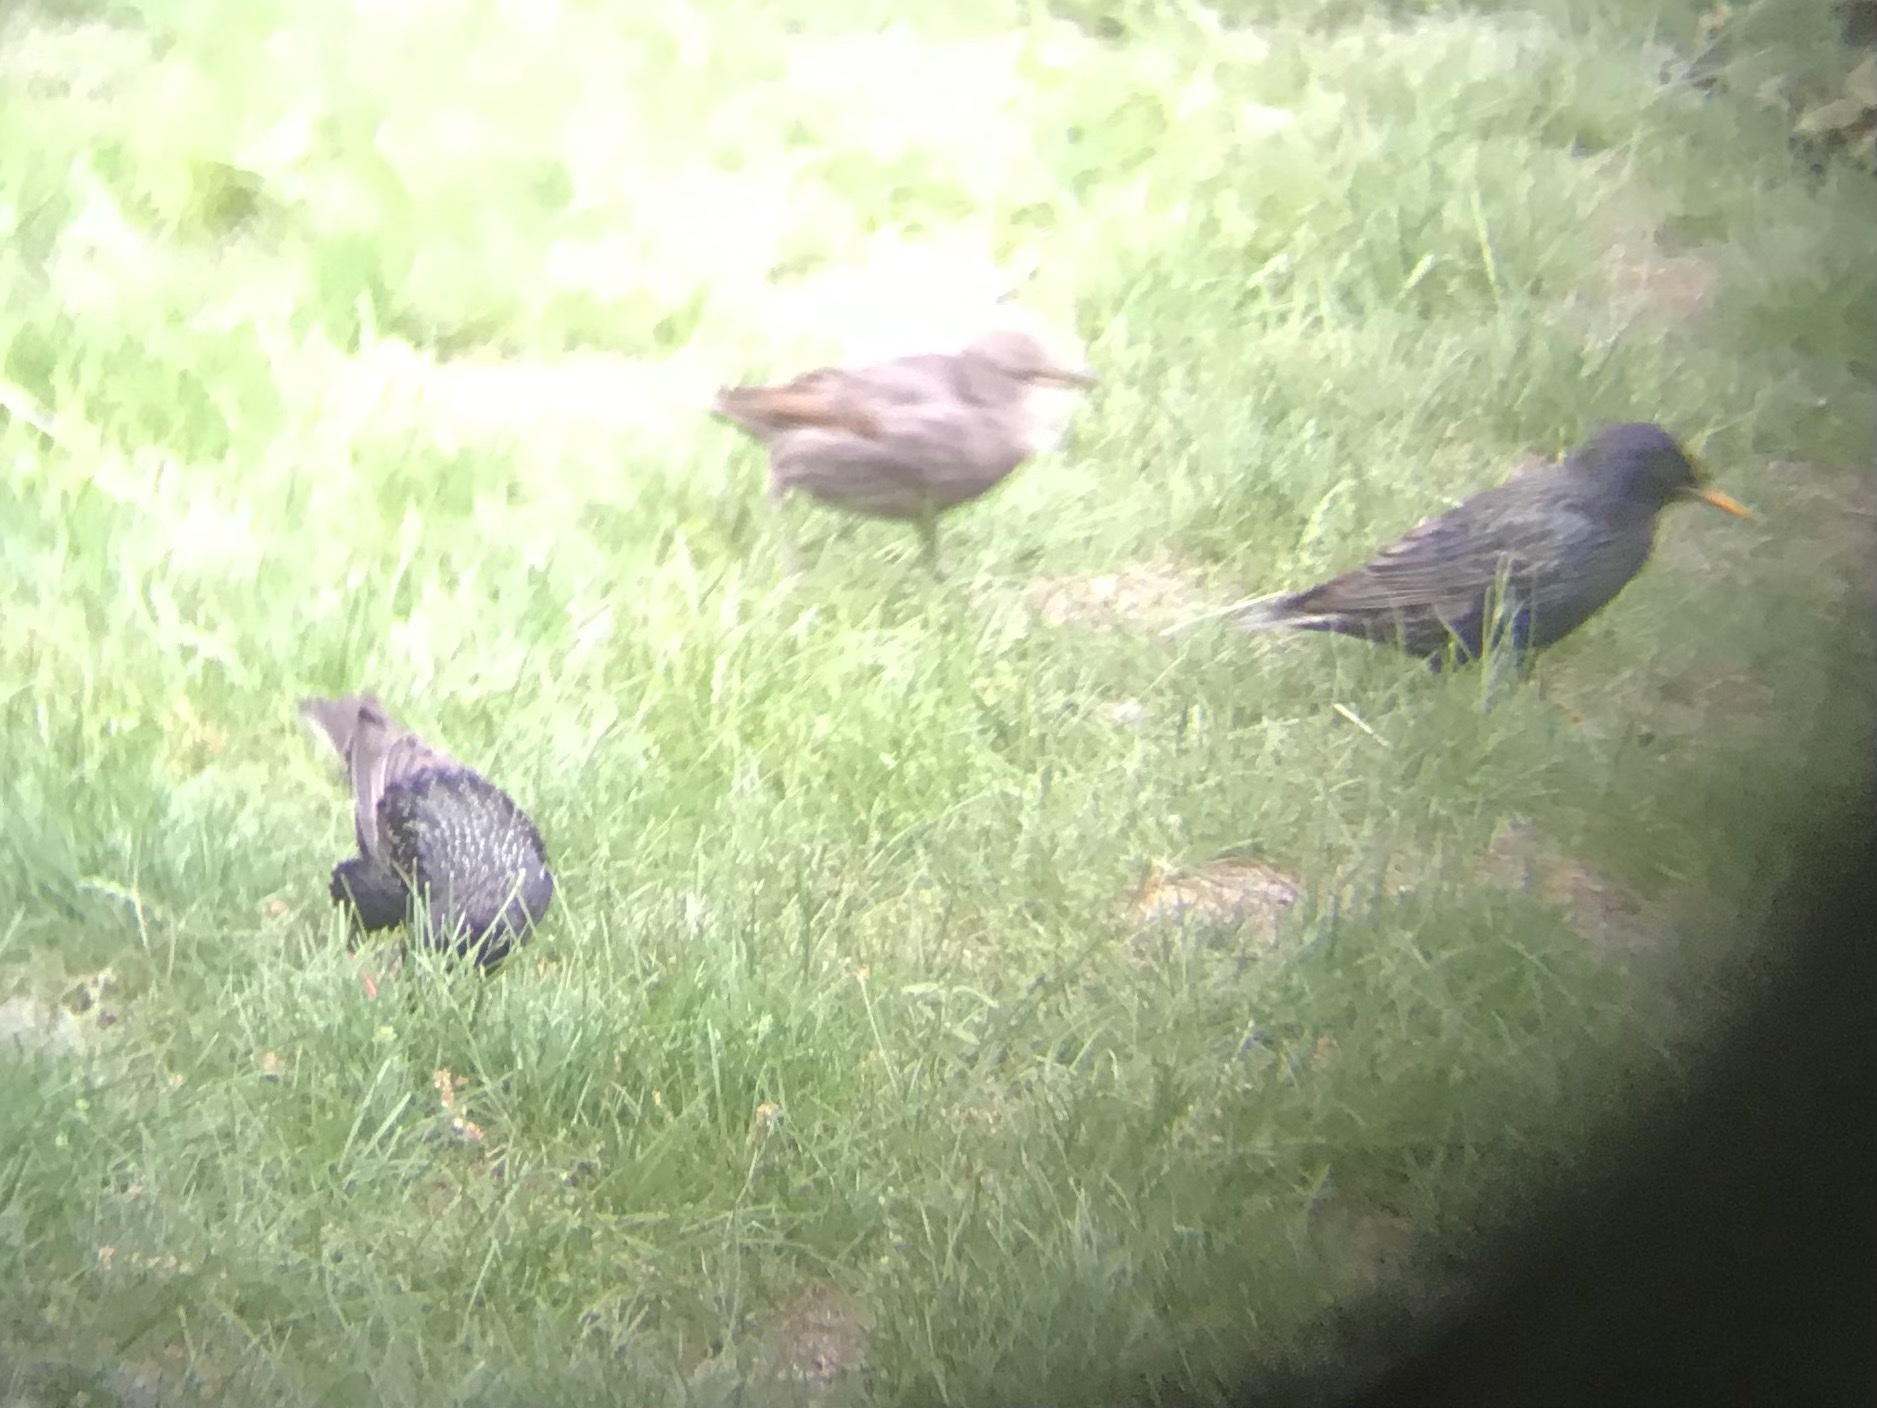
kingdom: Animalia
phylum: Chordata
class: Aves
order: Passeriformes
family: Sturnidae
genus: Sturnus
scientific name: Sturnus vulgaris
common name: Common starling
